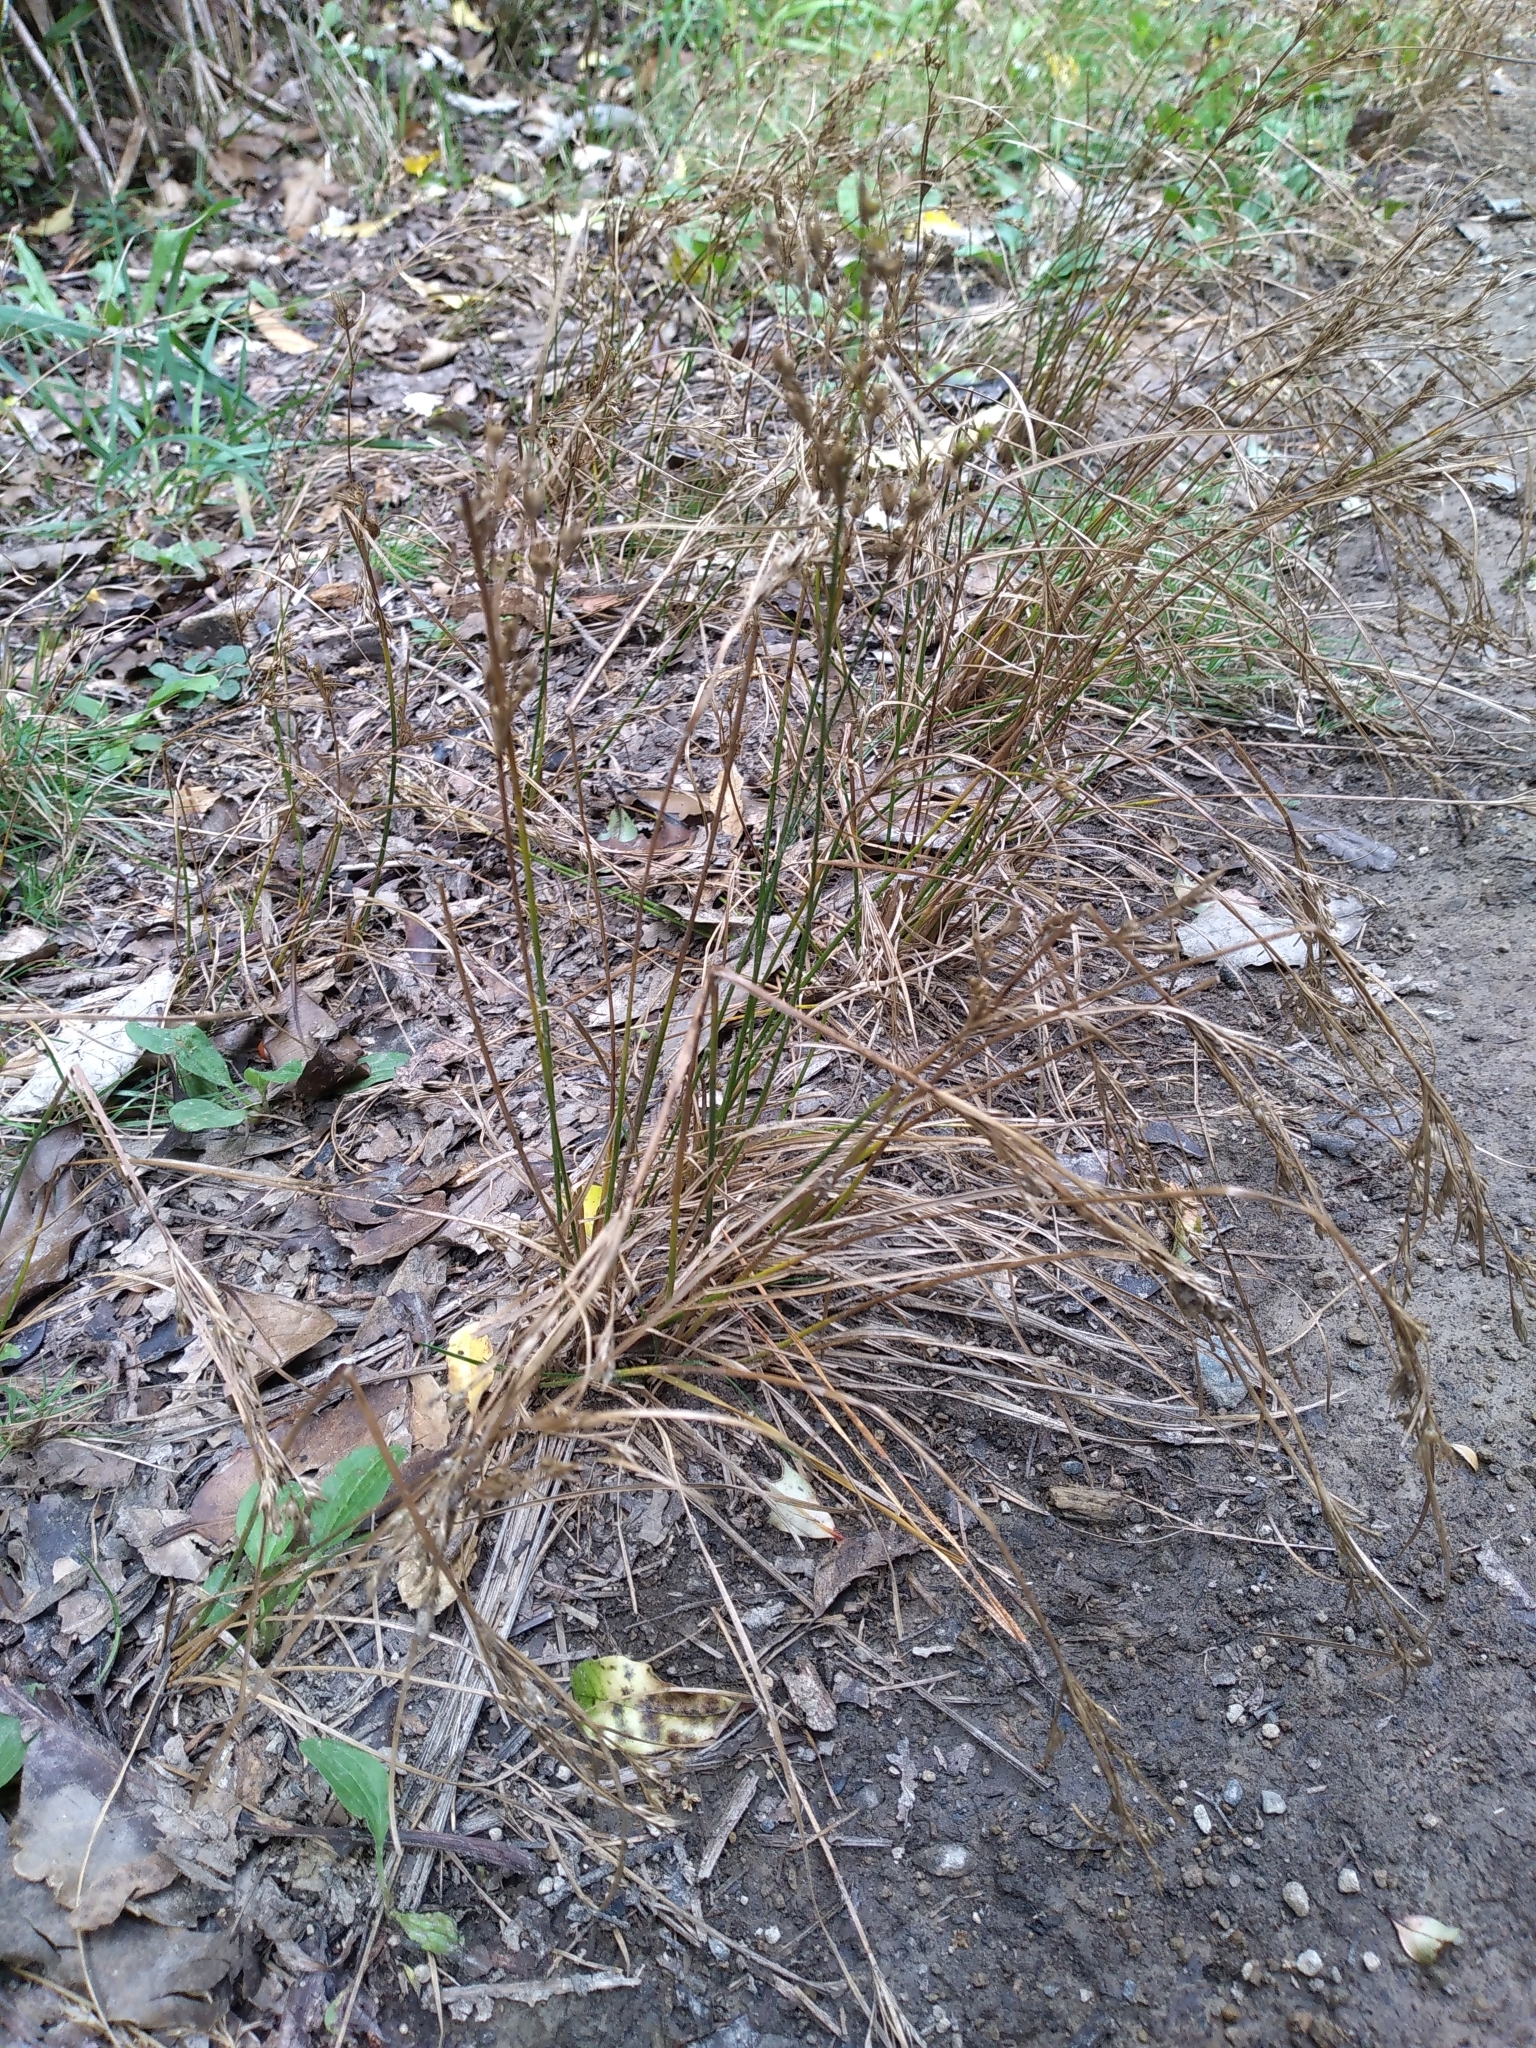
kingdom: Plantae
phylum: Tracheophyta
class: Liliopsida
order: Poales
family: Juncaceae
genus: Juncus
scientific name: Juncus tenuis
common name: Slender rush
